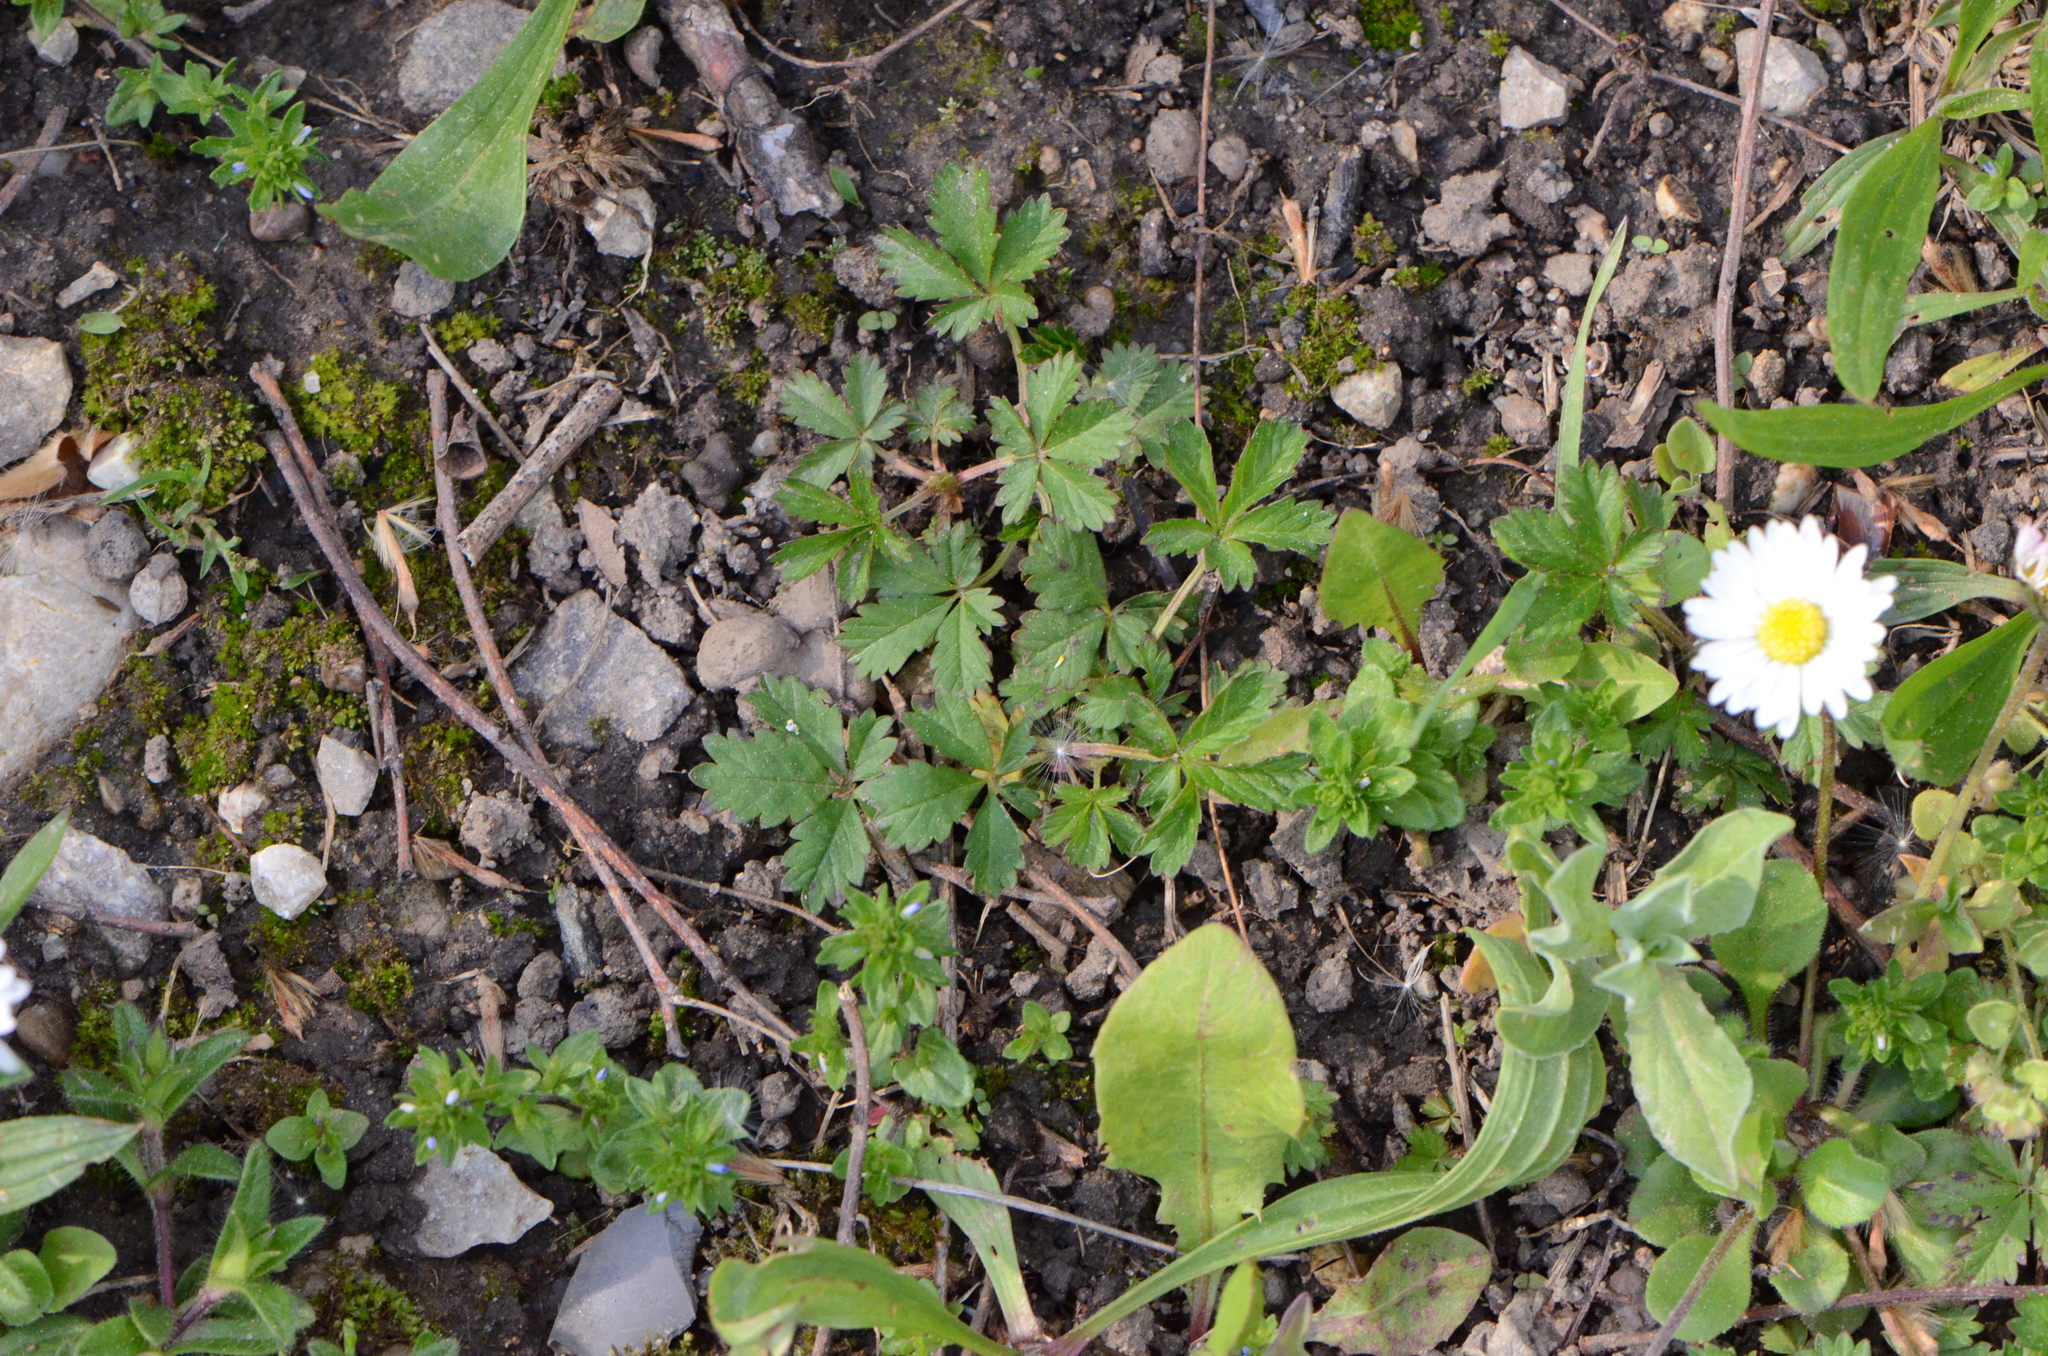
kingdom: Plantae
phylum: Tracheophyta
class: Magnoliopsida
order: Rosales
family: Rosaceae
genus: Potentilla
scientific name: Potentilla reptans
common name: Creeping cinquefoil
